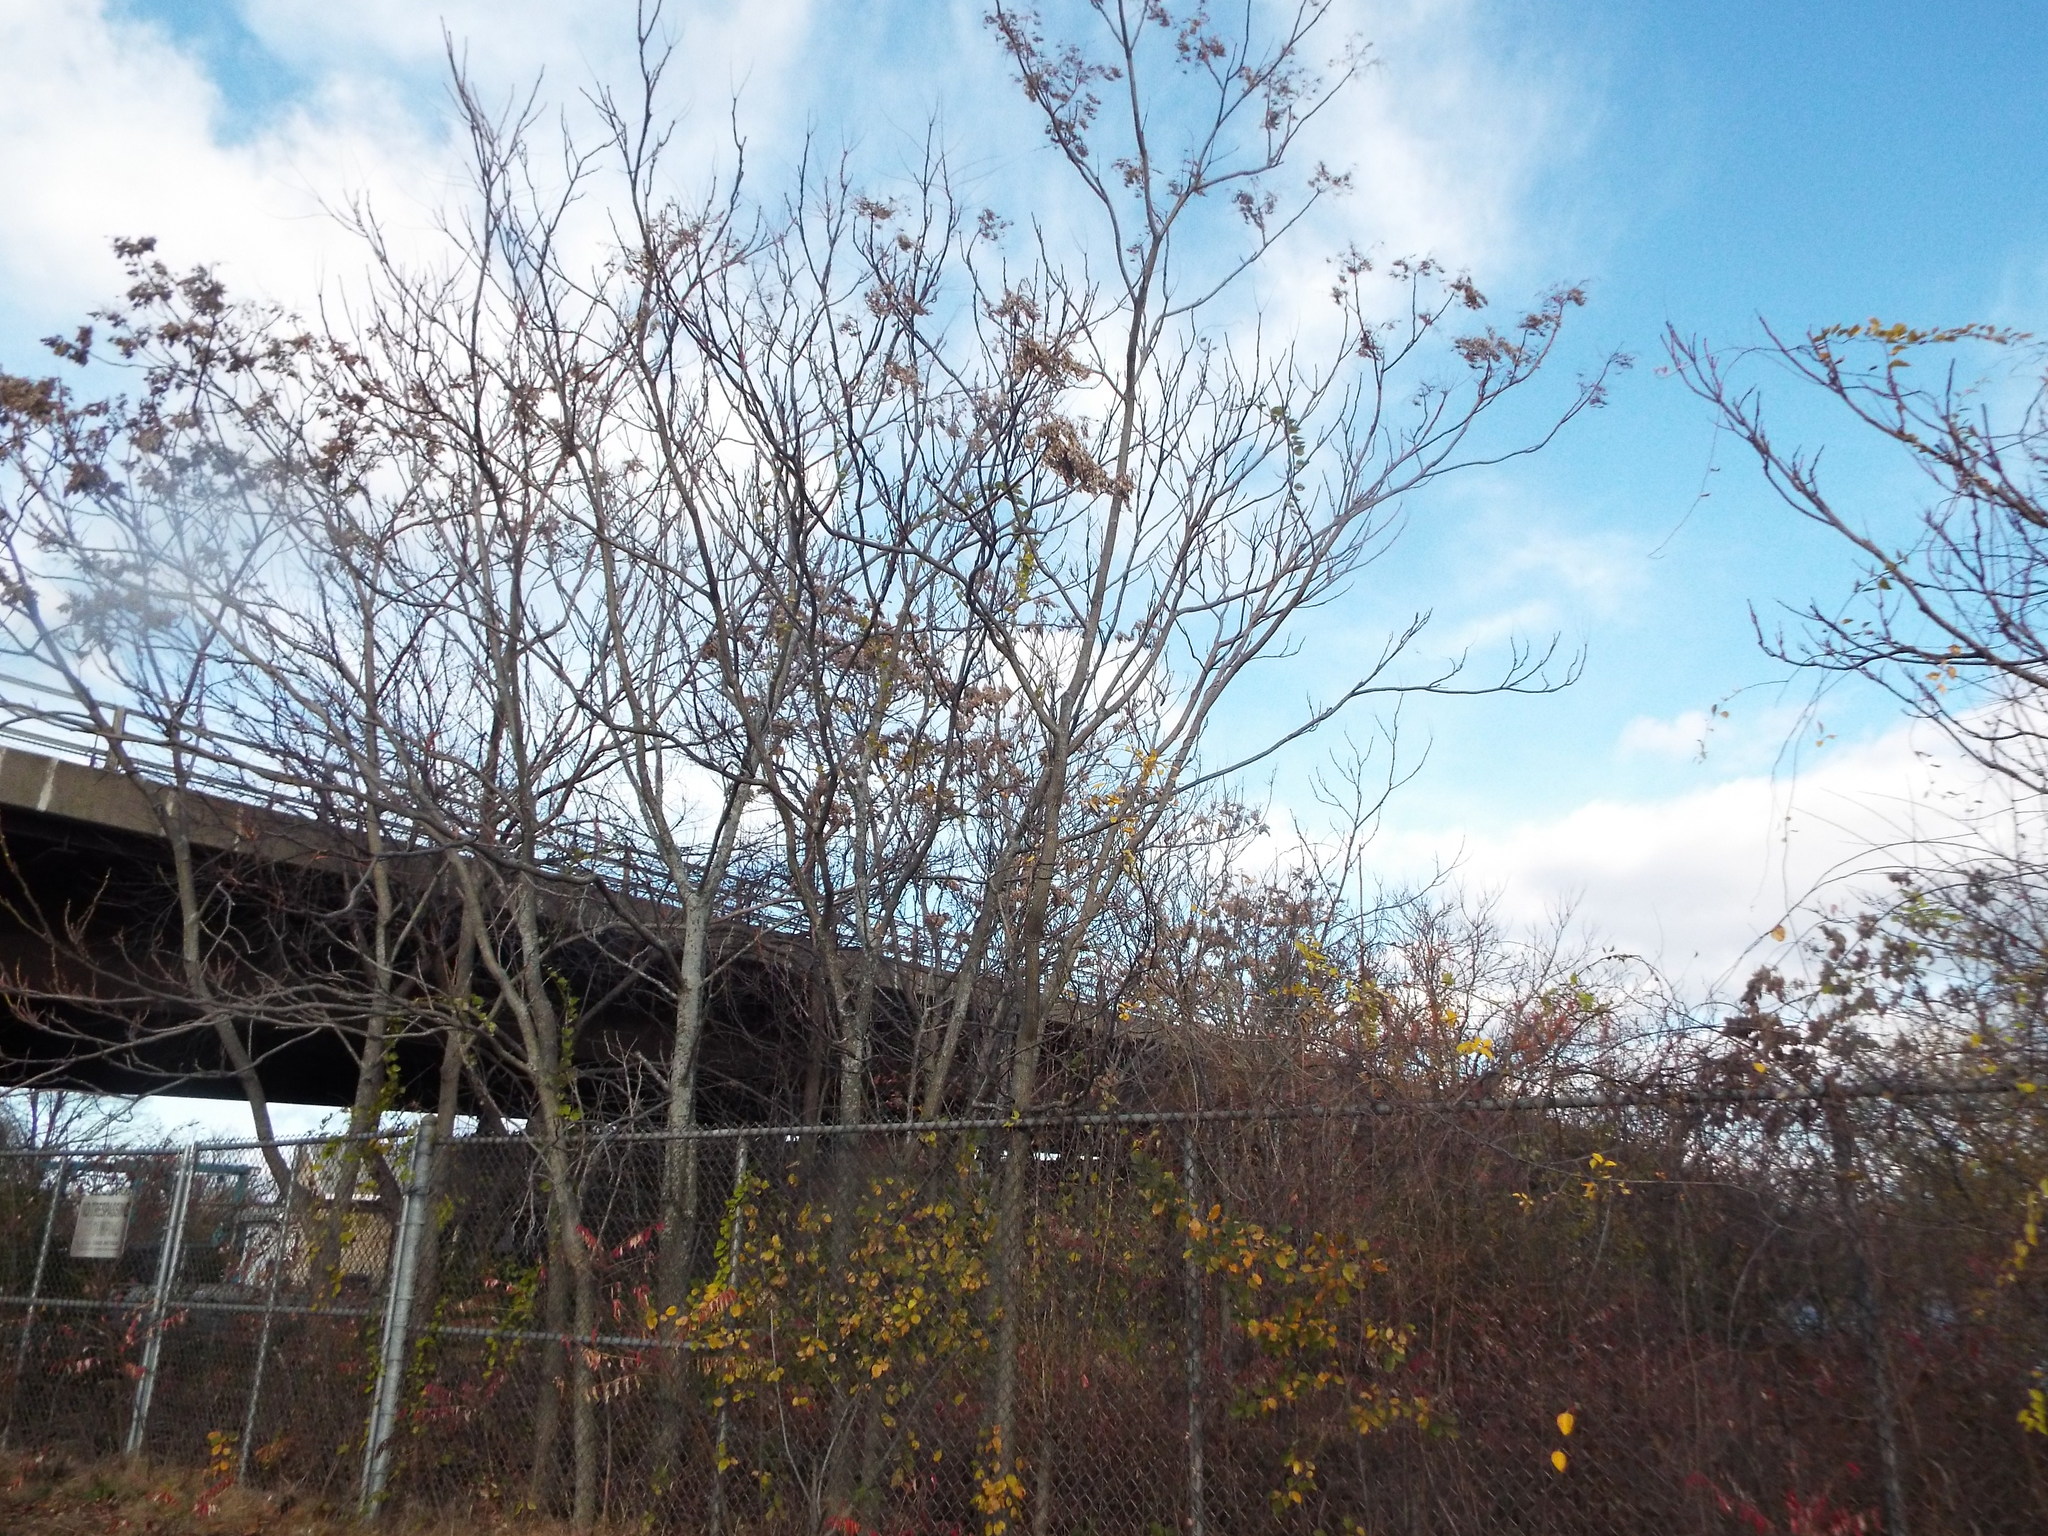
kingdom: Plantae
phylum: Tracheophyta
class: Magnoliopsida
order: Sapindales
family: Simaroubaceae
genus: Ailanthus
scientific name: Ailanthus altissima
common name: Tree-of-heaven
